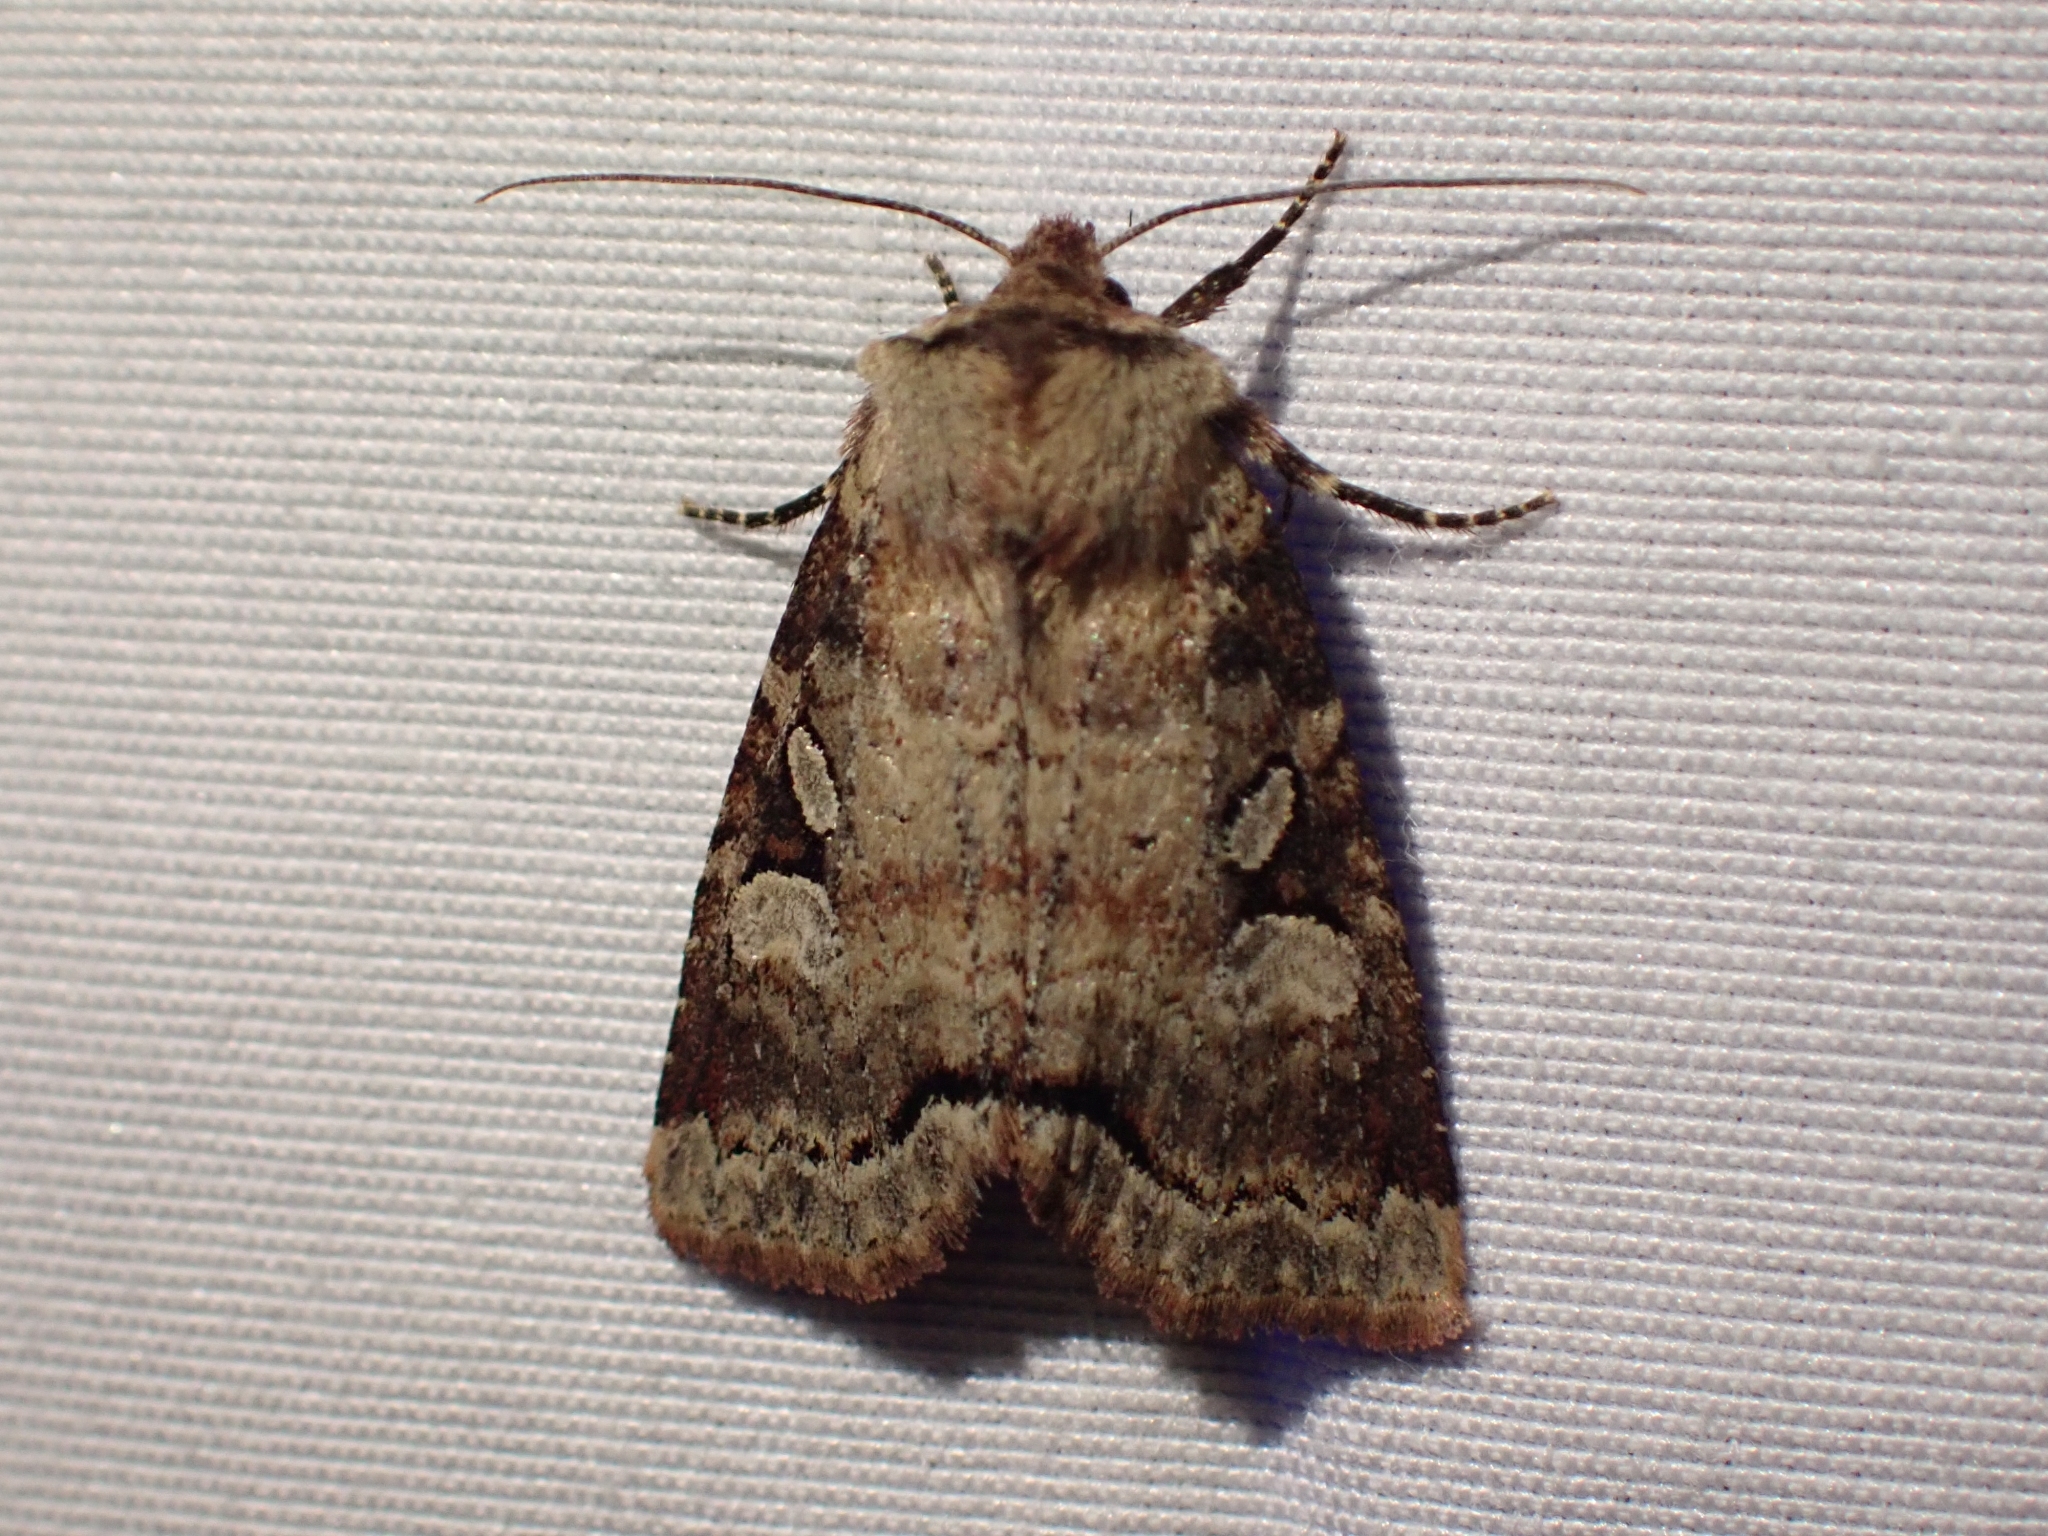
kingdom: Animalia
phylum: Arthropoda
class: Insecta
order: Lepidoptera
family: Noctuidae
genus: Hillia
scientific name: Hillia iris
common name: Iris rover moth
